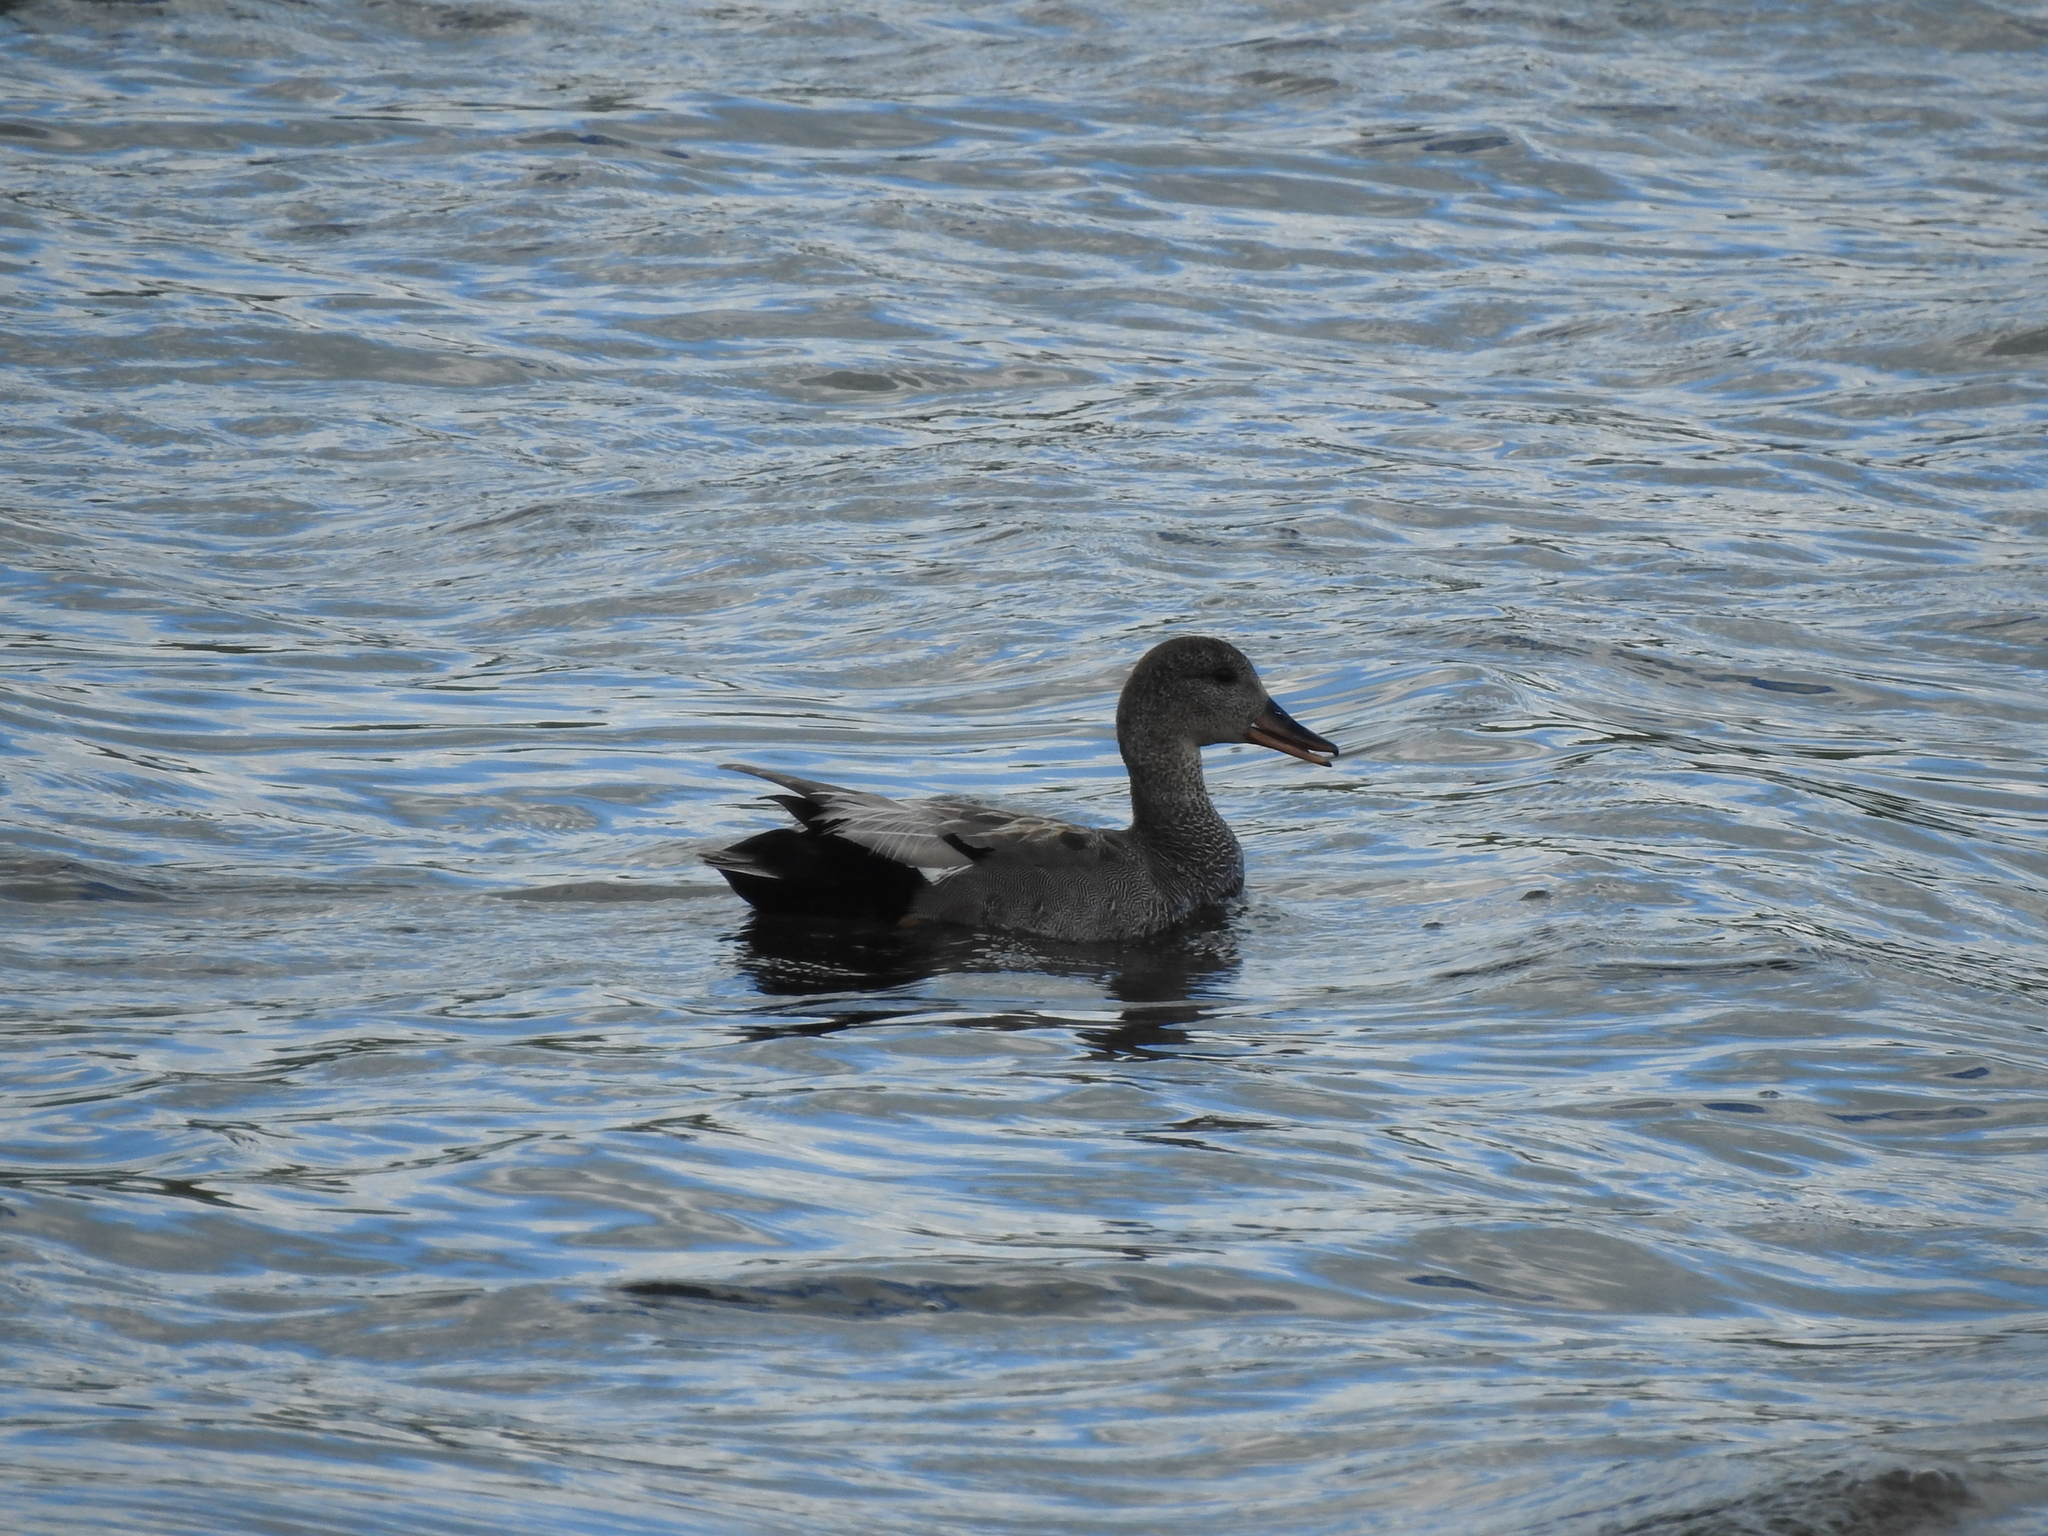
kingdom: Animalia
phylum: Chordata
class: Aves
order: Anseriformes
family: Anatidae
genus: Mareca
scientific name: Mareca strepera
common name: Gadwall
